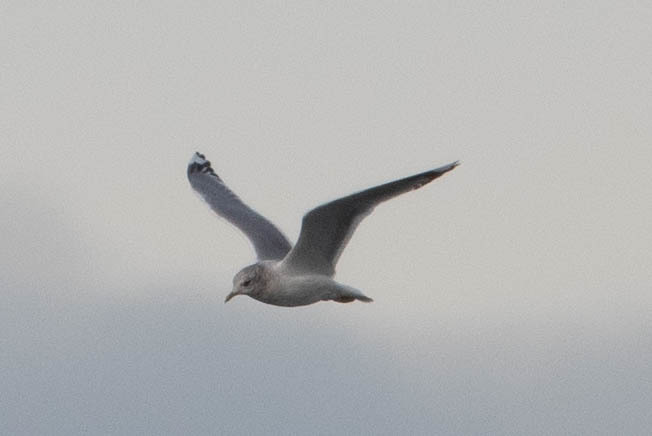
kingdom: Animalia
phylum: Chordata
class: Aves
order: Charadriiformes
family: Laridae
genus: Larus
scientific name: Larus brachyrhynchus
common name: Short-billed gull
